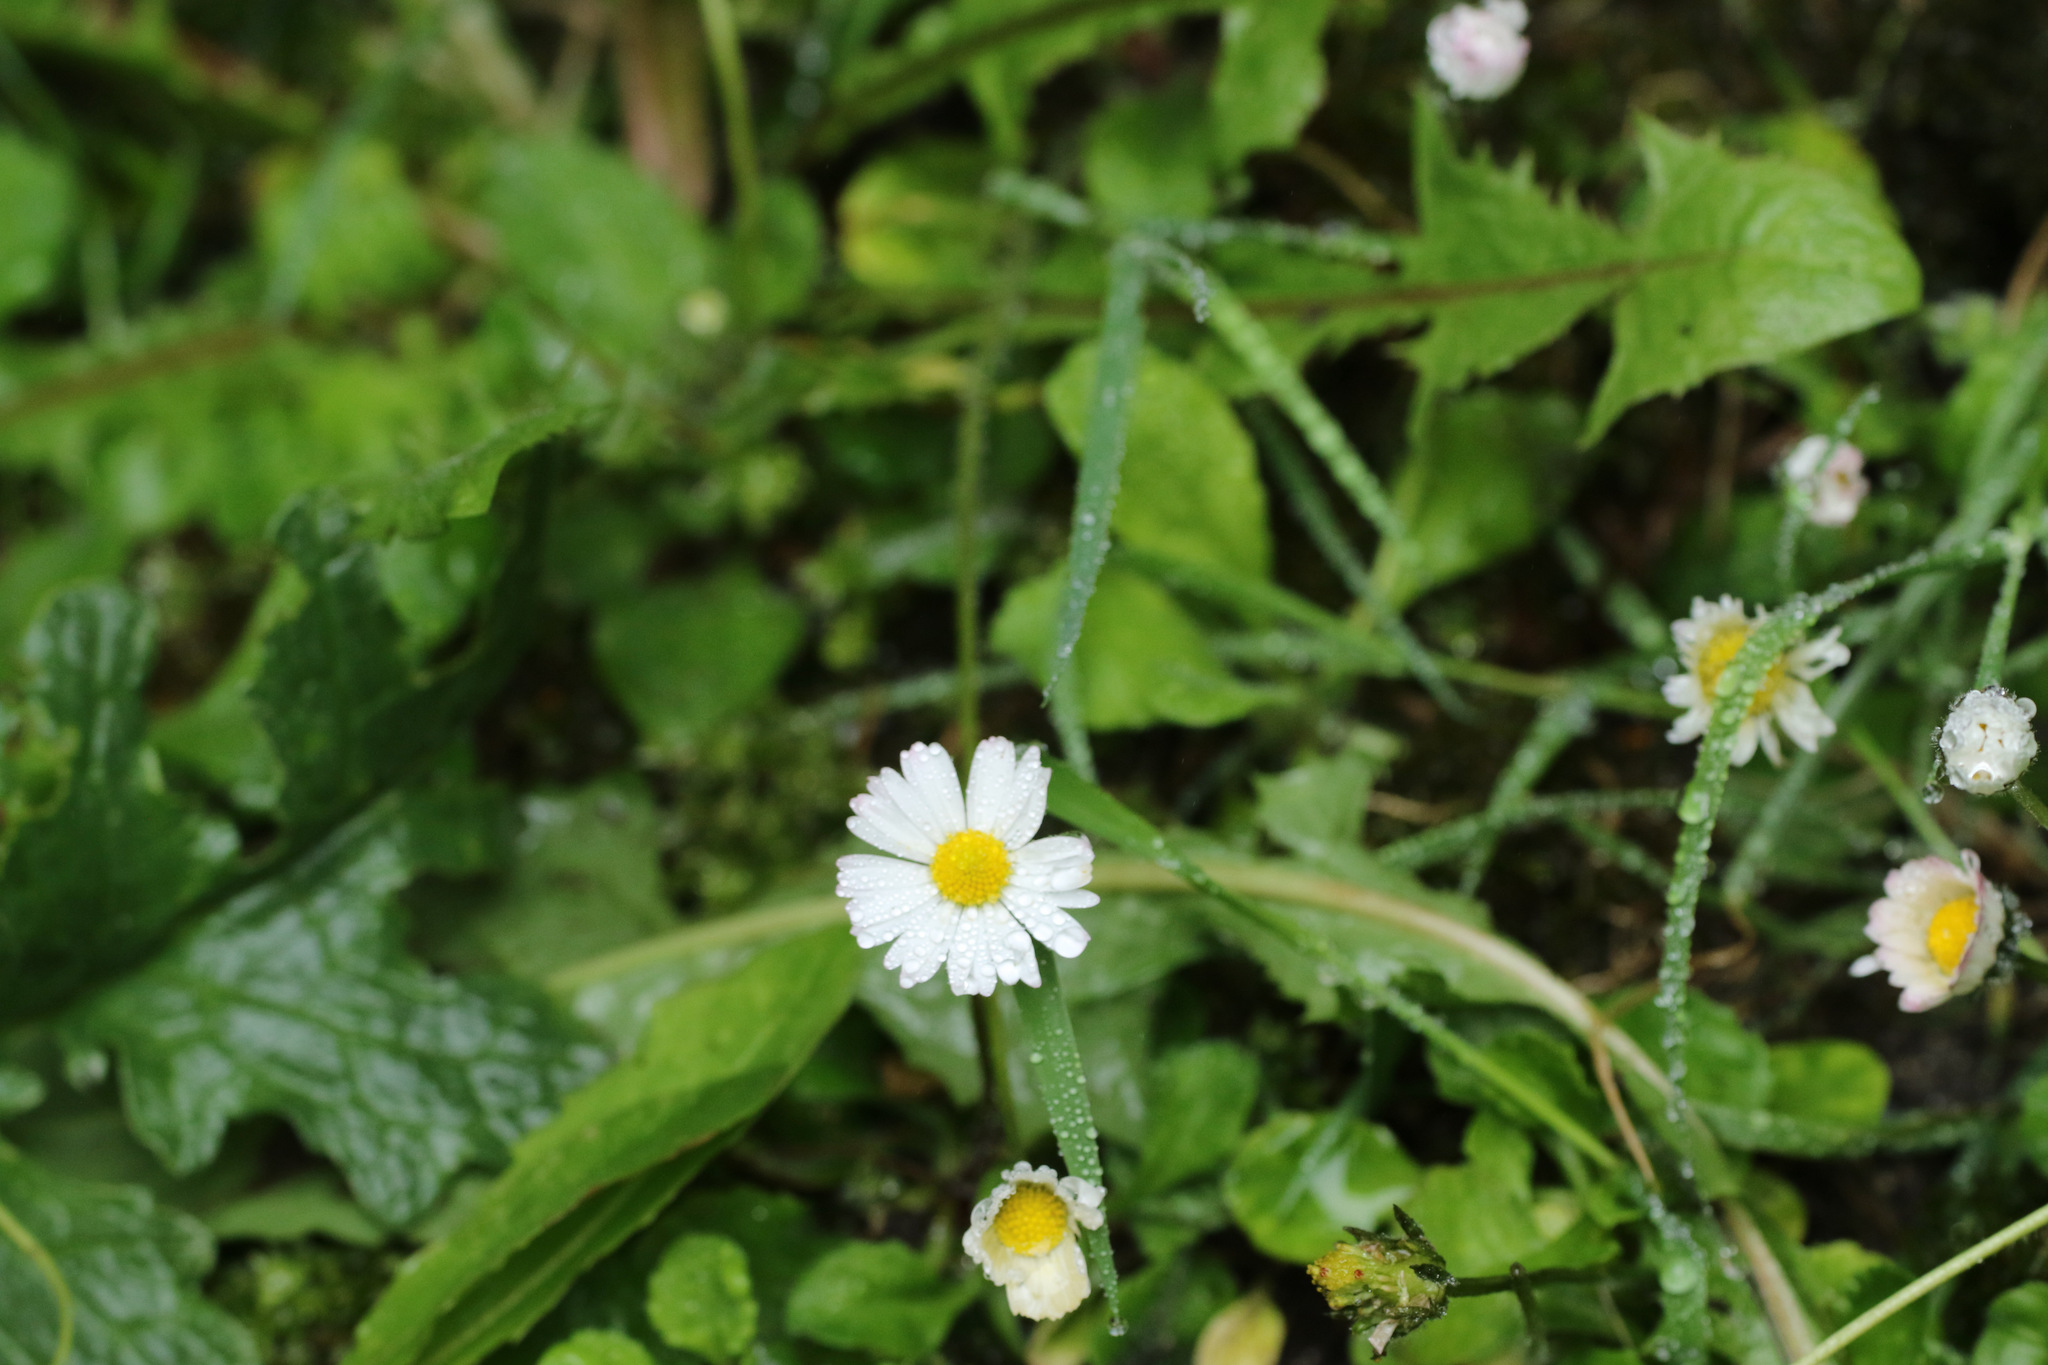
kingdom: Plantae
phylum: Tracheophyta
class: Magnoliopsida
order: Asterales
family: Asteraceae
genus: Bellis
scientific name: Bellis perennis
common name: Lawndaisy
